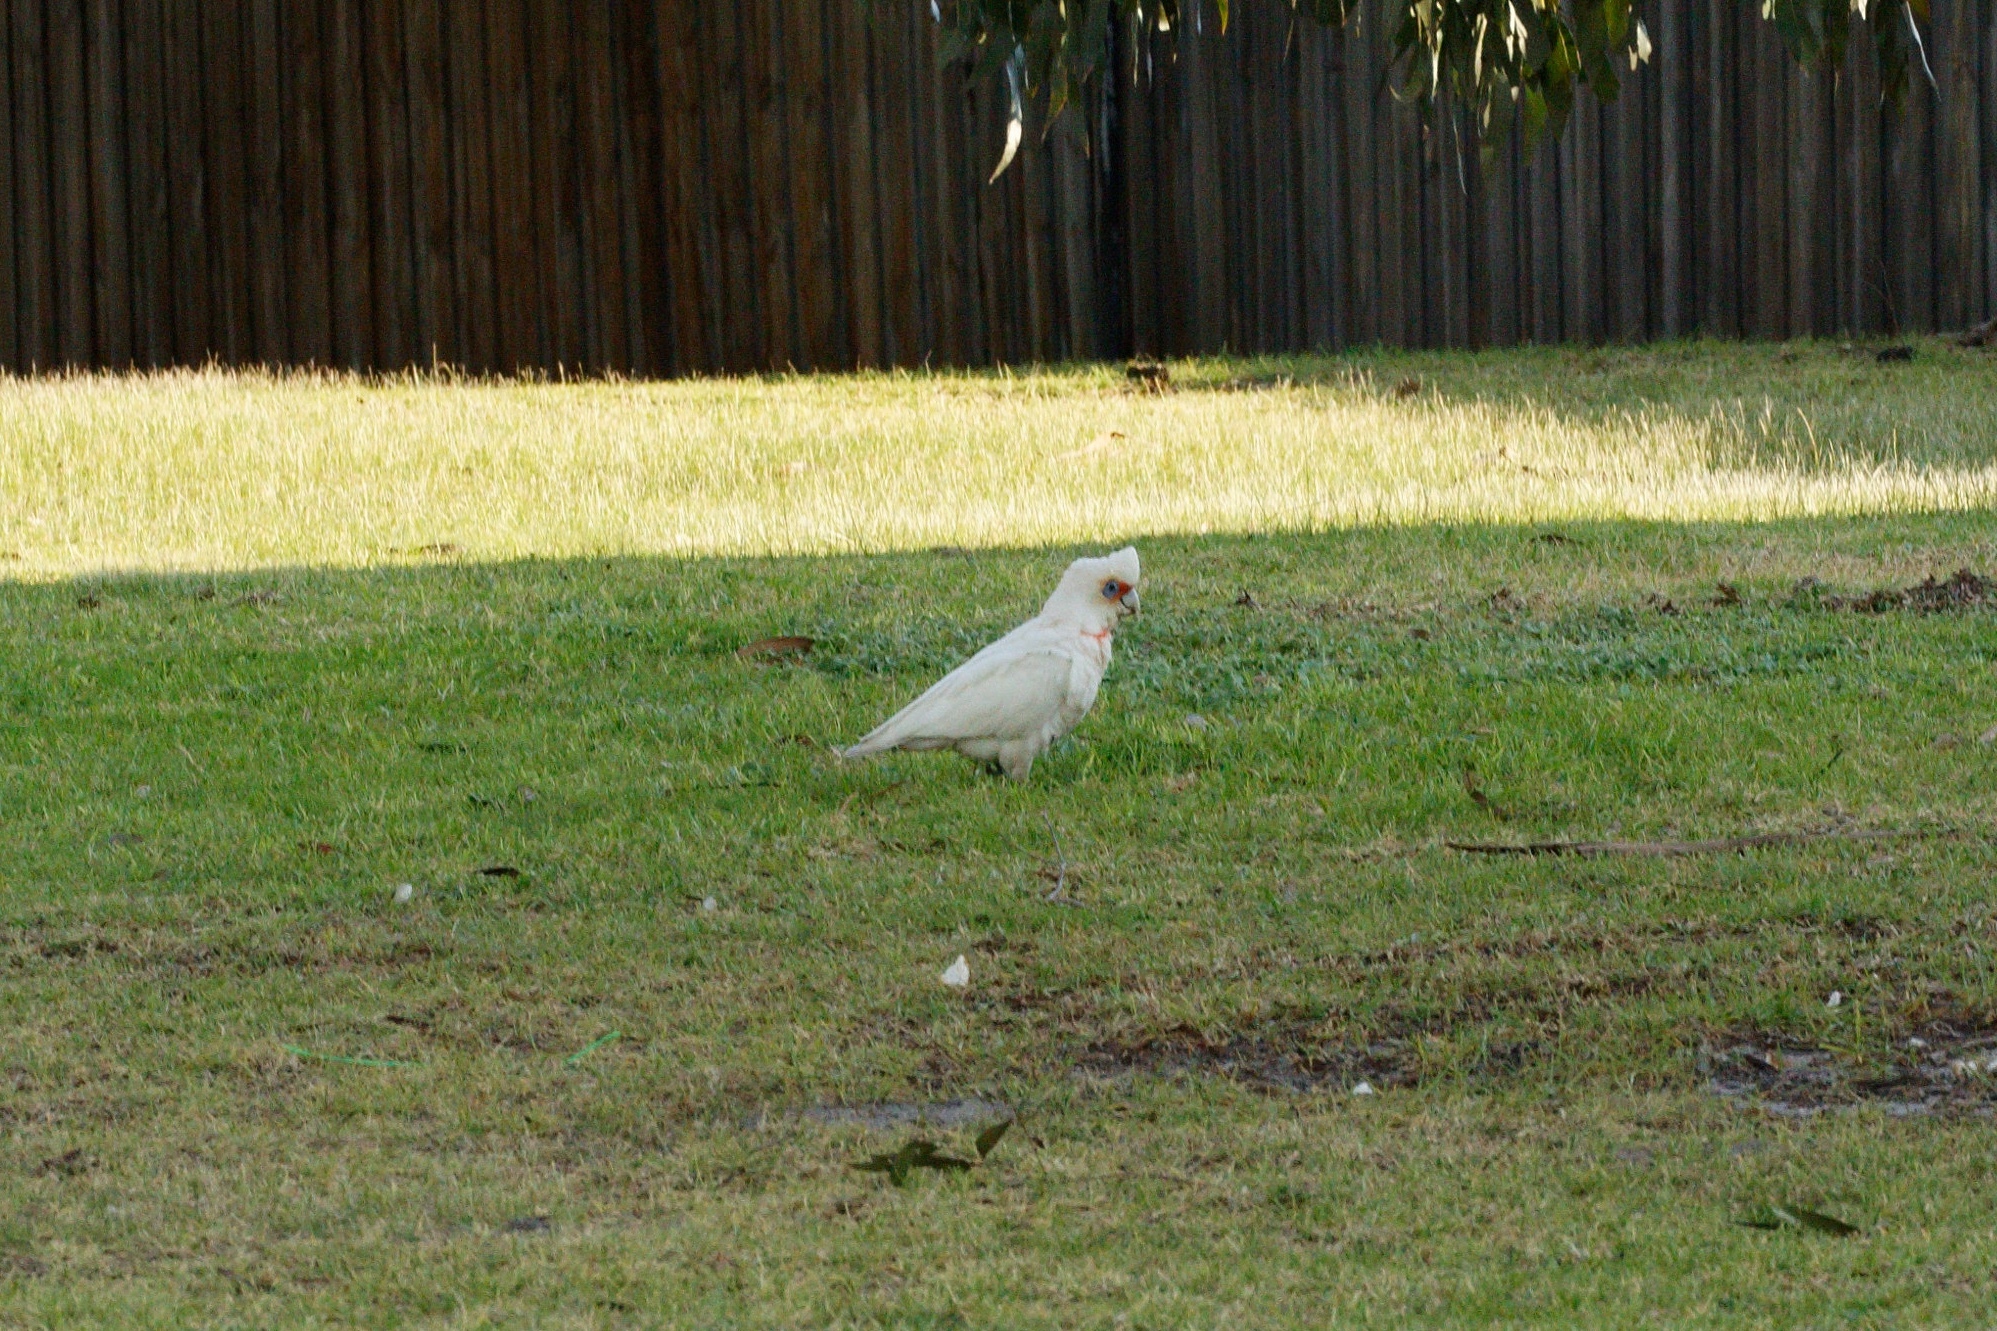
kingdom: Animalia
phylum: Chordata
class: Aves
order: Psittaciformes
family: Psittacidae
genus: Cacatua
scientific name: Cacatua tenuirostris
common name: Long-billed corella
